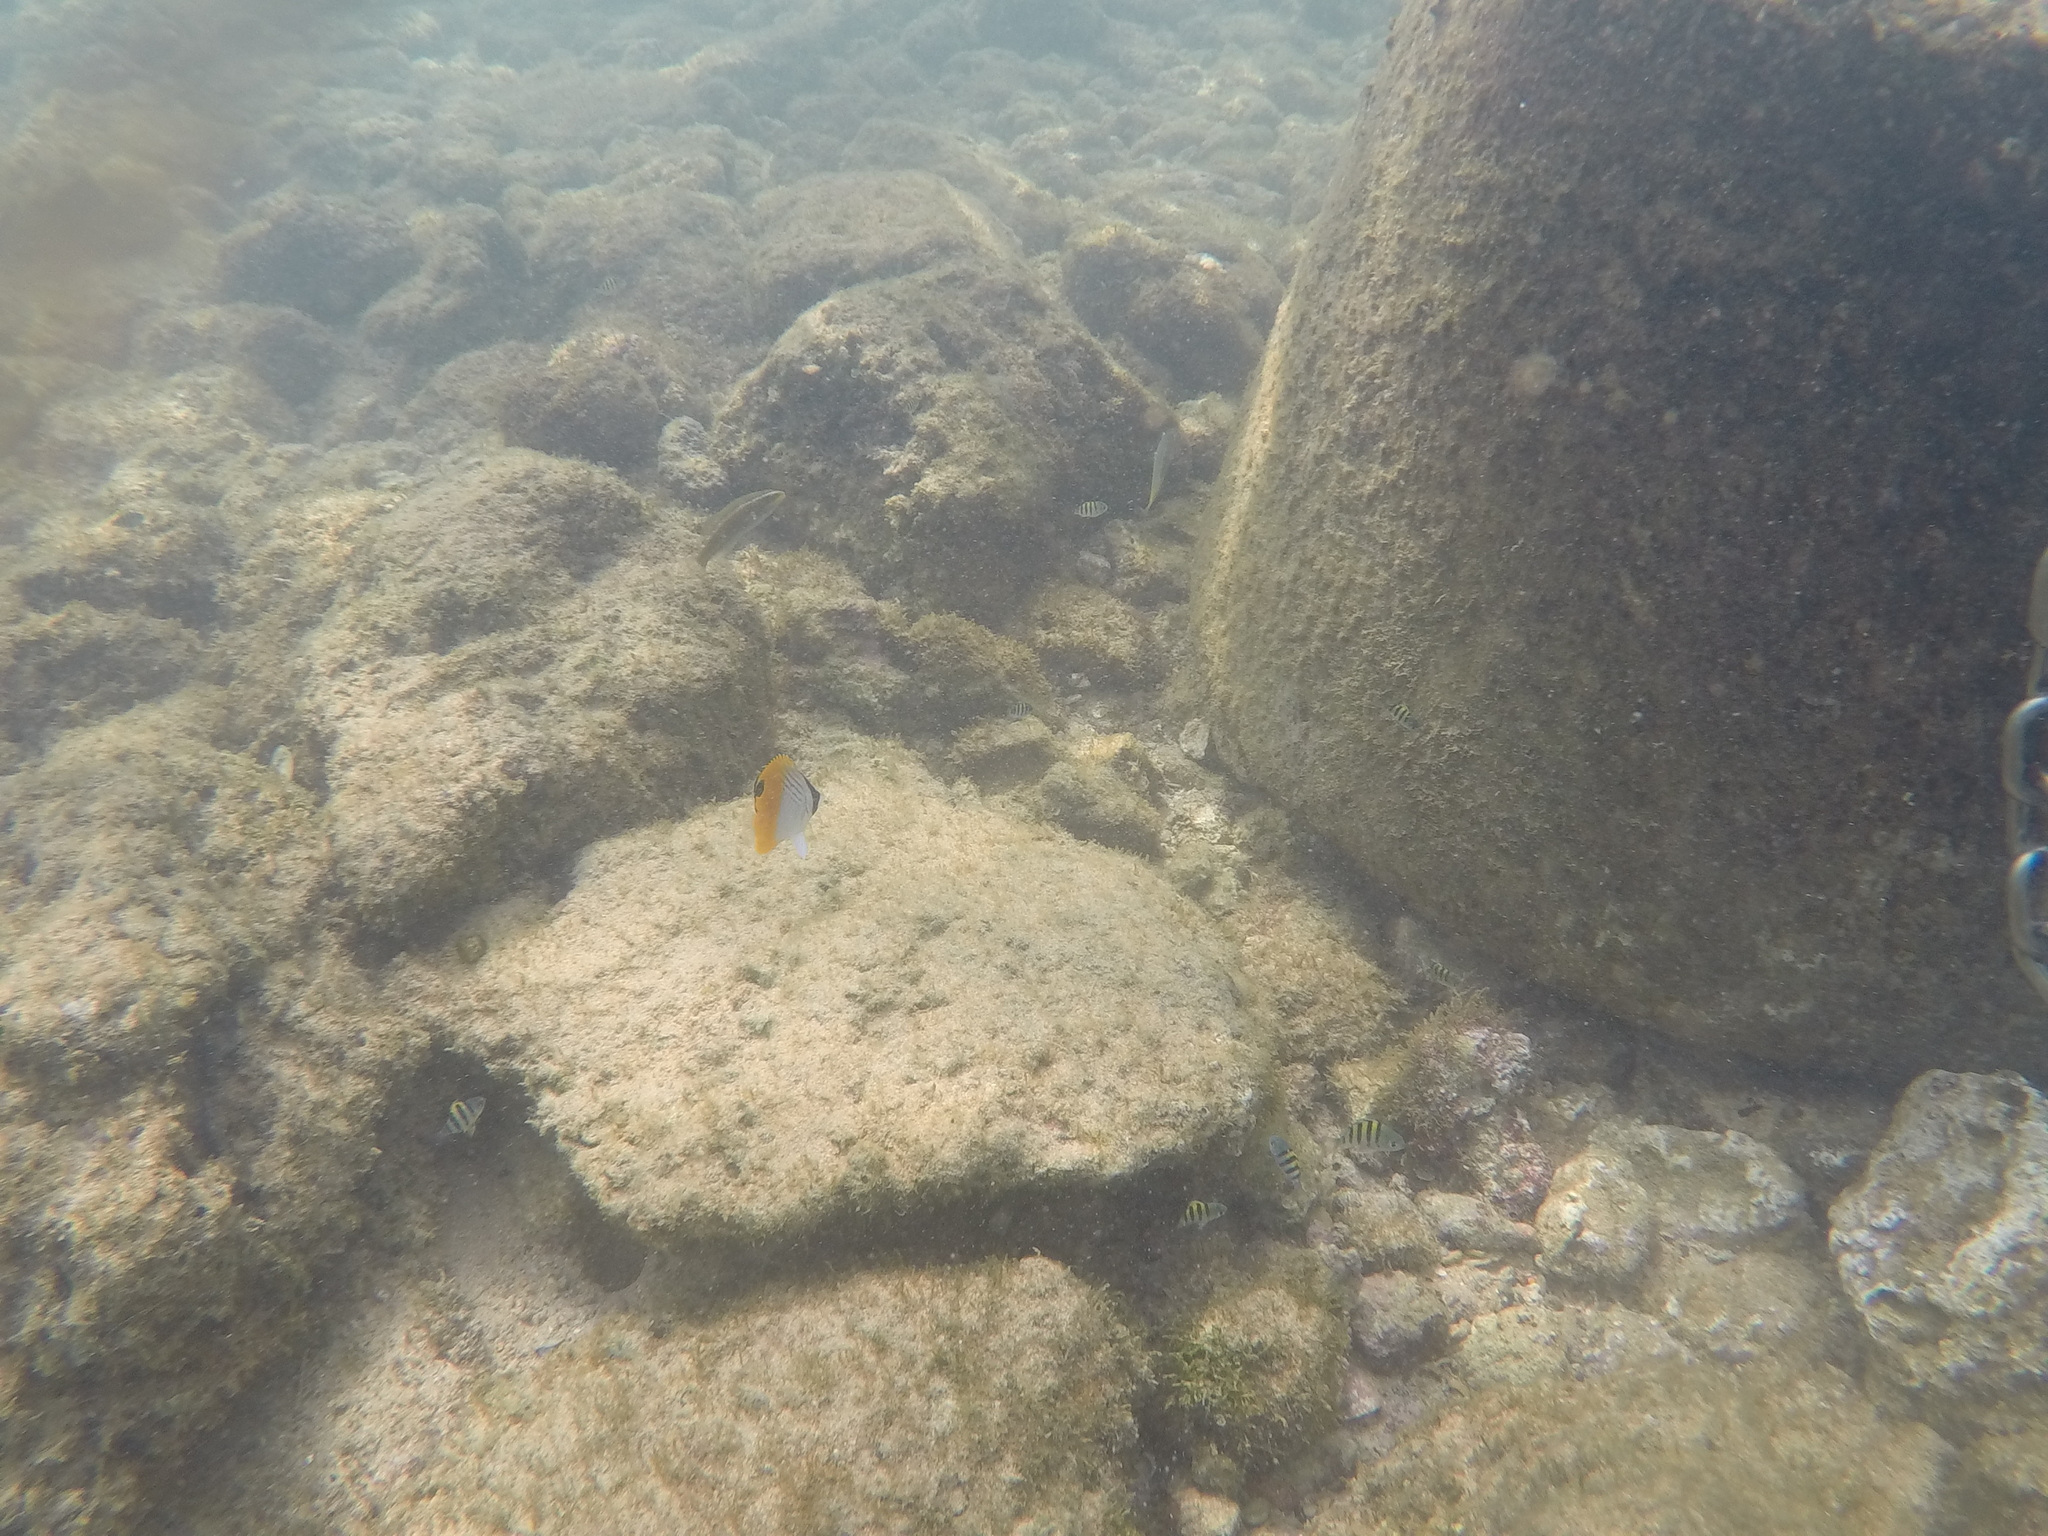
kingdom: Animalia
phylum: Chordata
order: Perciformes
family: Chaetodontidae
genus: Chaetodon
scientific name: Chaetodon auriga
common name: Threadfin butterflyfish
